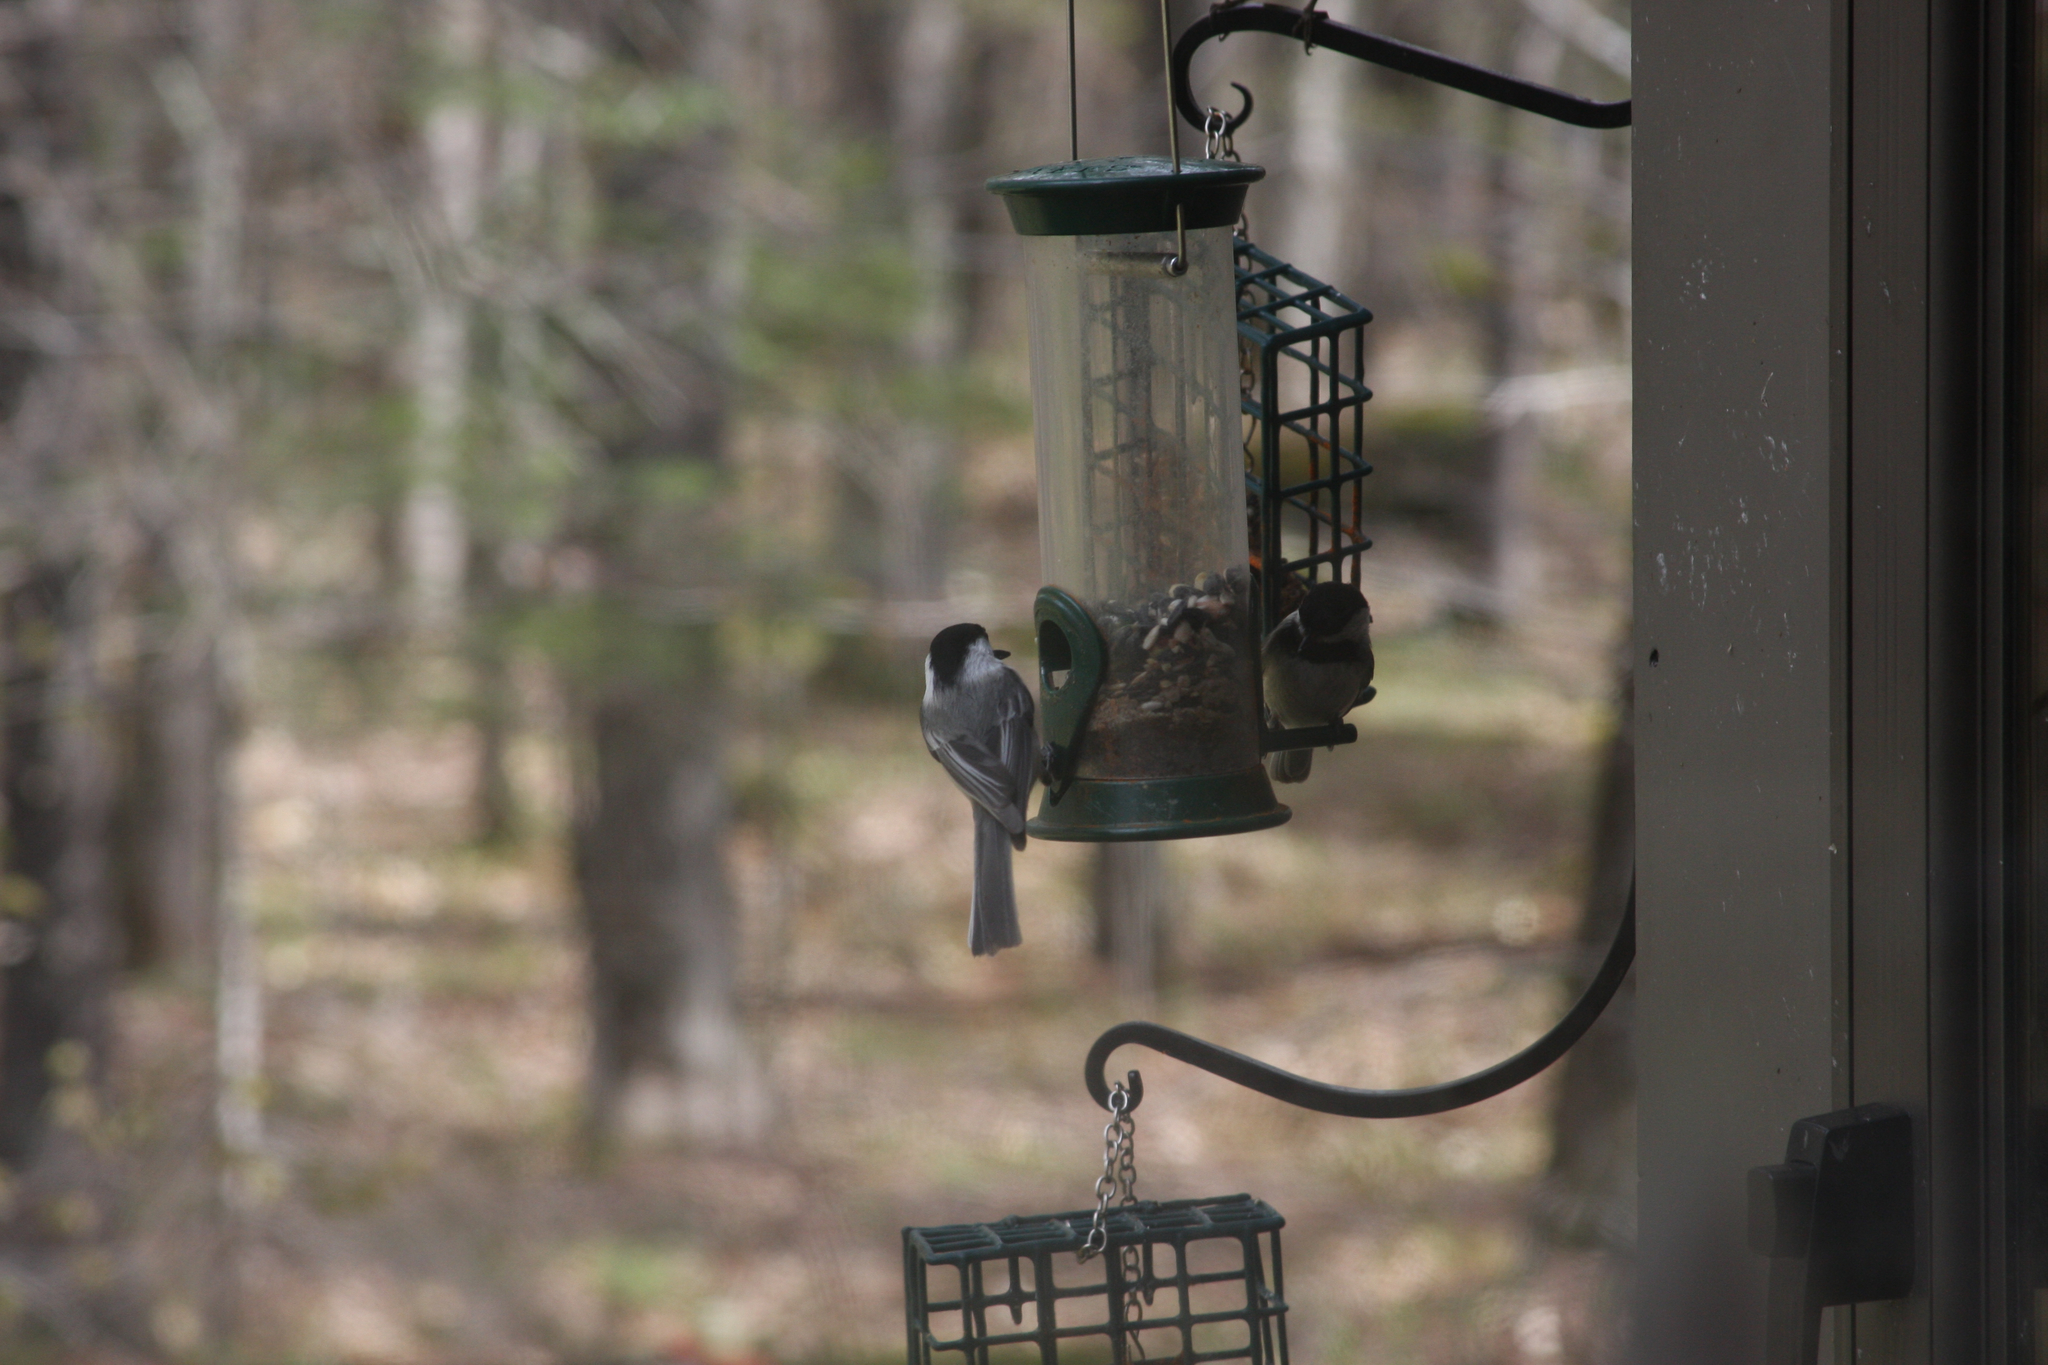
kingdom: Animalia
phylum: Chordata
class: Aves
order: Passeriformes
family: Paridae
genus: Poecile
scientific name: Poecile atricapillus
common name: Black-capped chickadee
